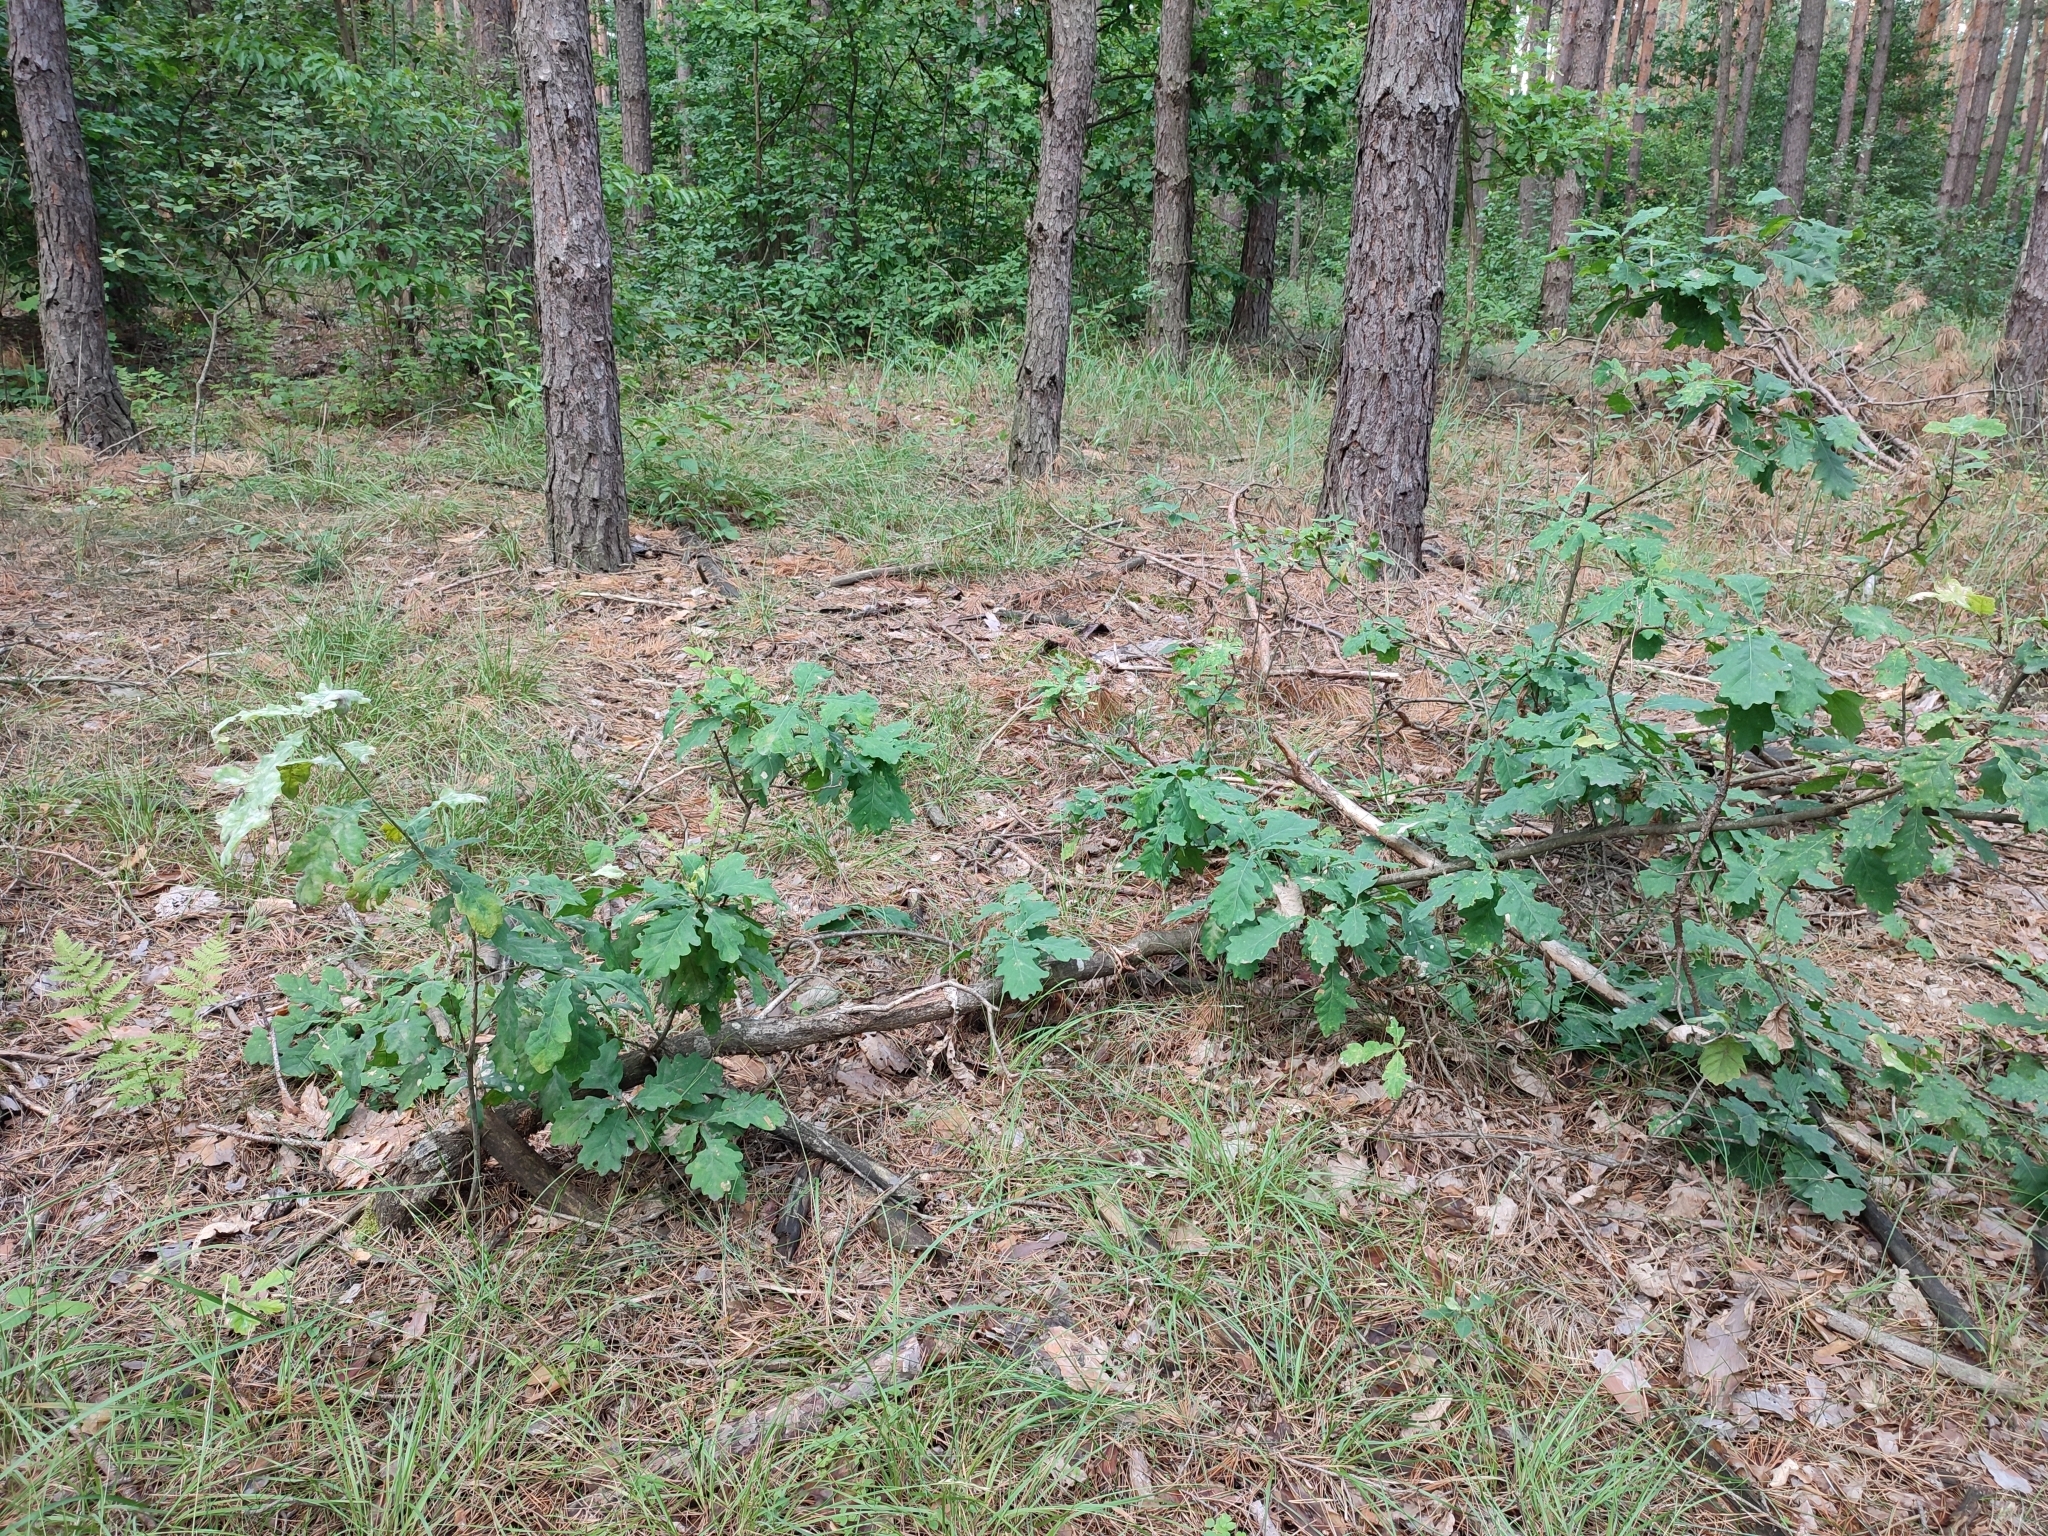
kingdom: Plantae
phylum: Tracheophyta
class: Magnoliopsida
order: Fagales
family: Fagaceae
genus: Quercus
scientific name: Quercus robur
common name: Pedunculate oak
